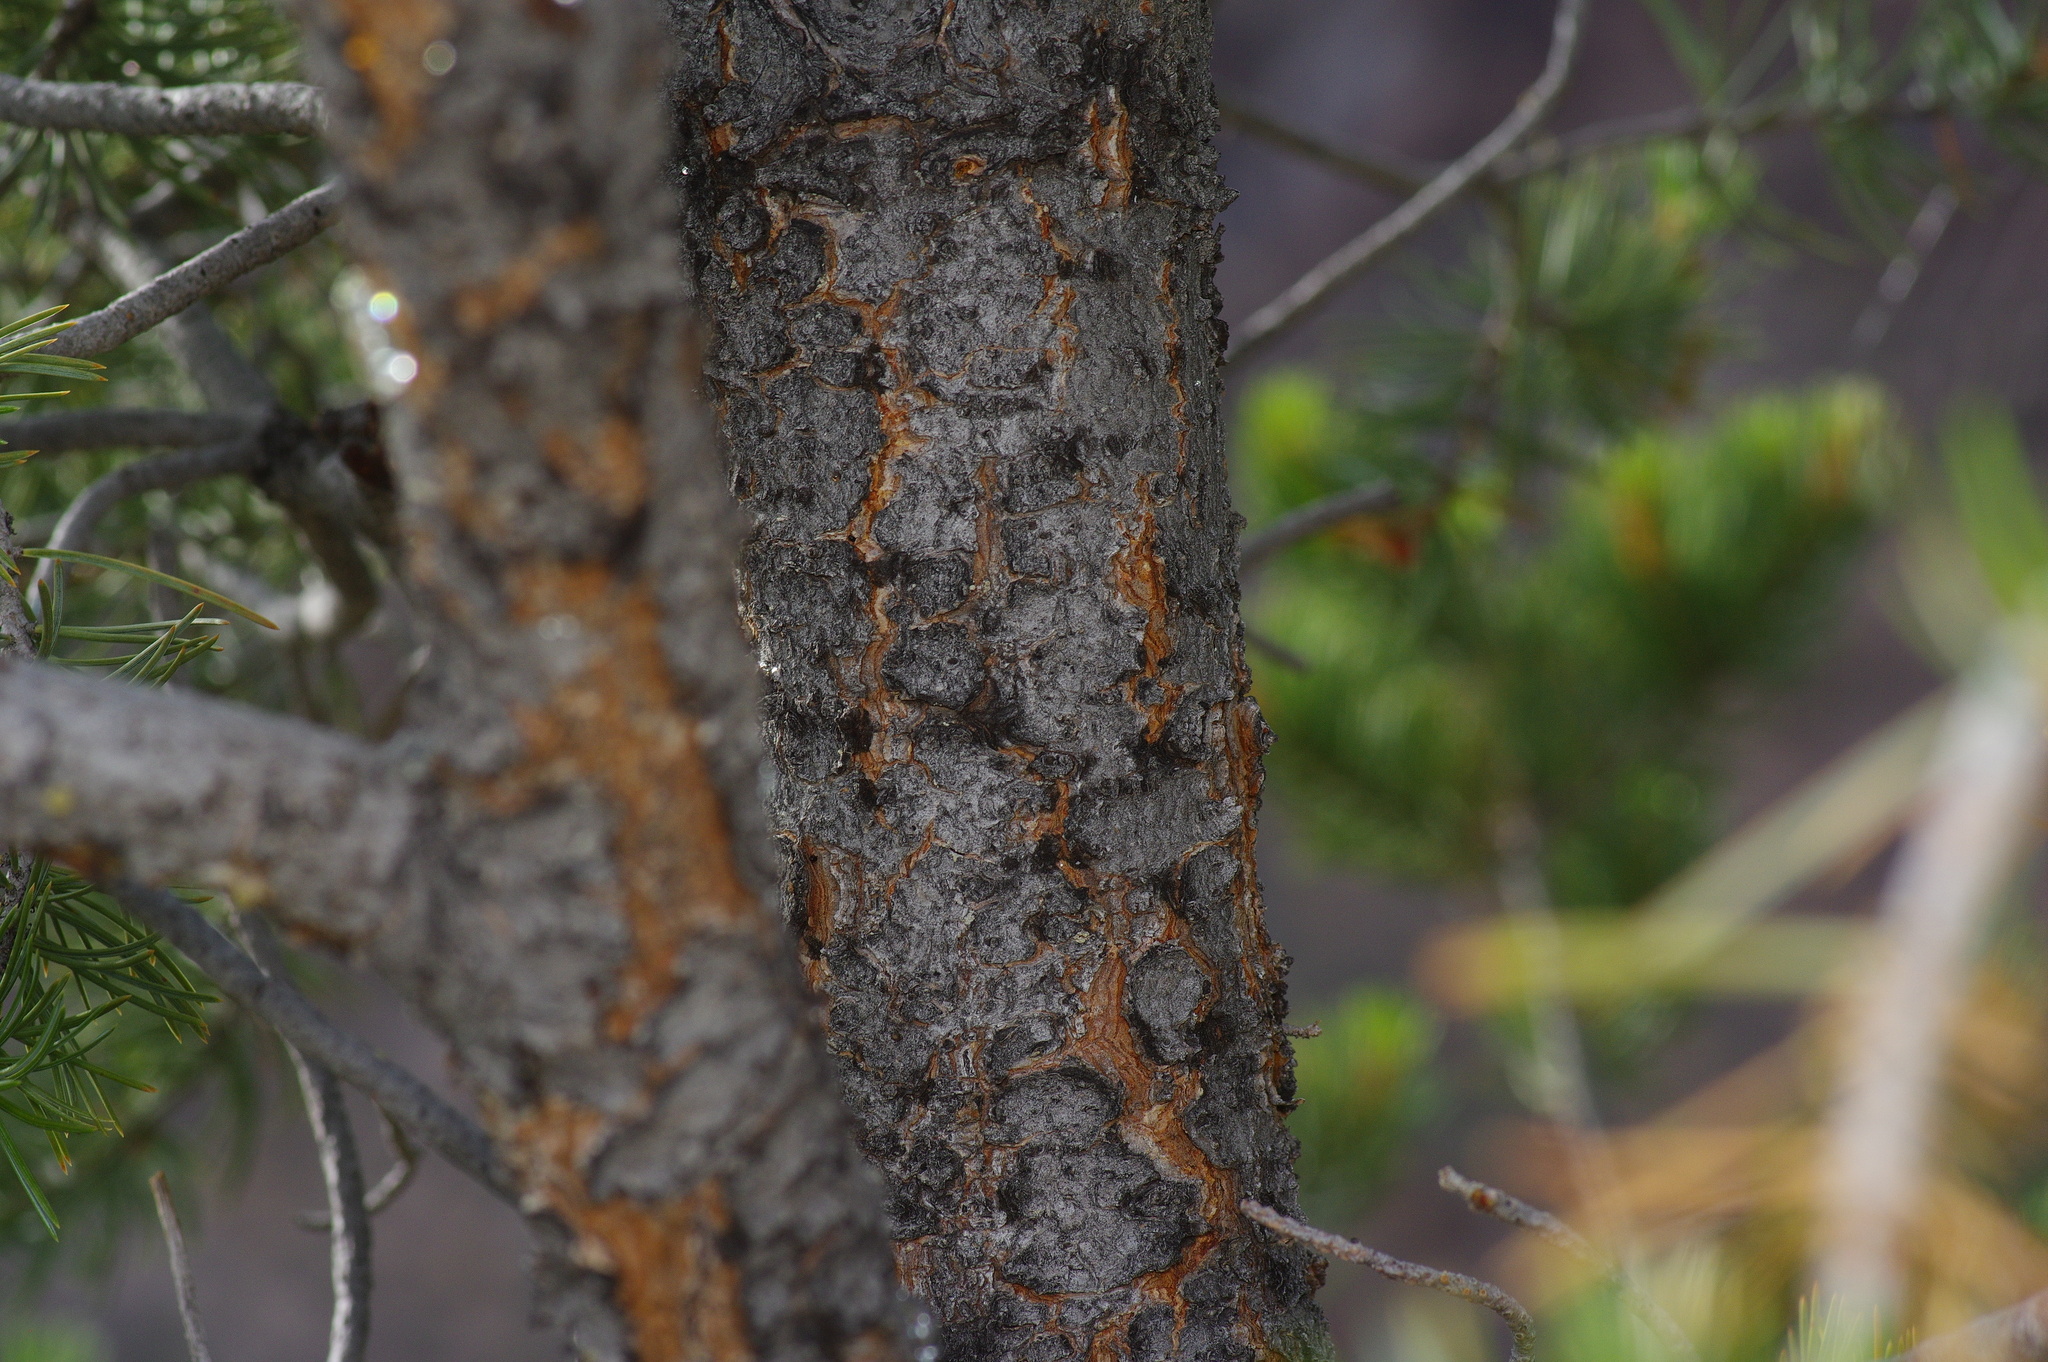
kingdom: Plantae
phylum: Tracheophyta
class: Pinopsida
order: Pinales
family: Pinaceae
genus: Pinus
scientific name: Pinus edulis
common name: Colorado pinyon
